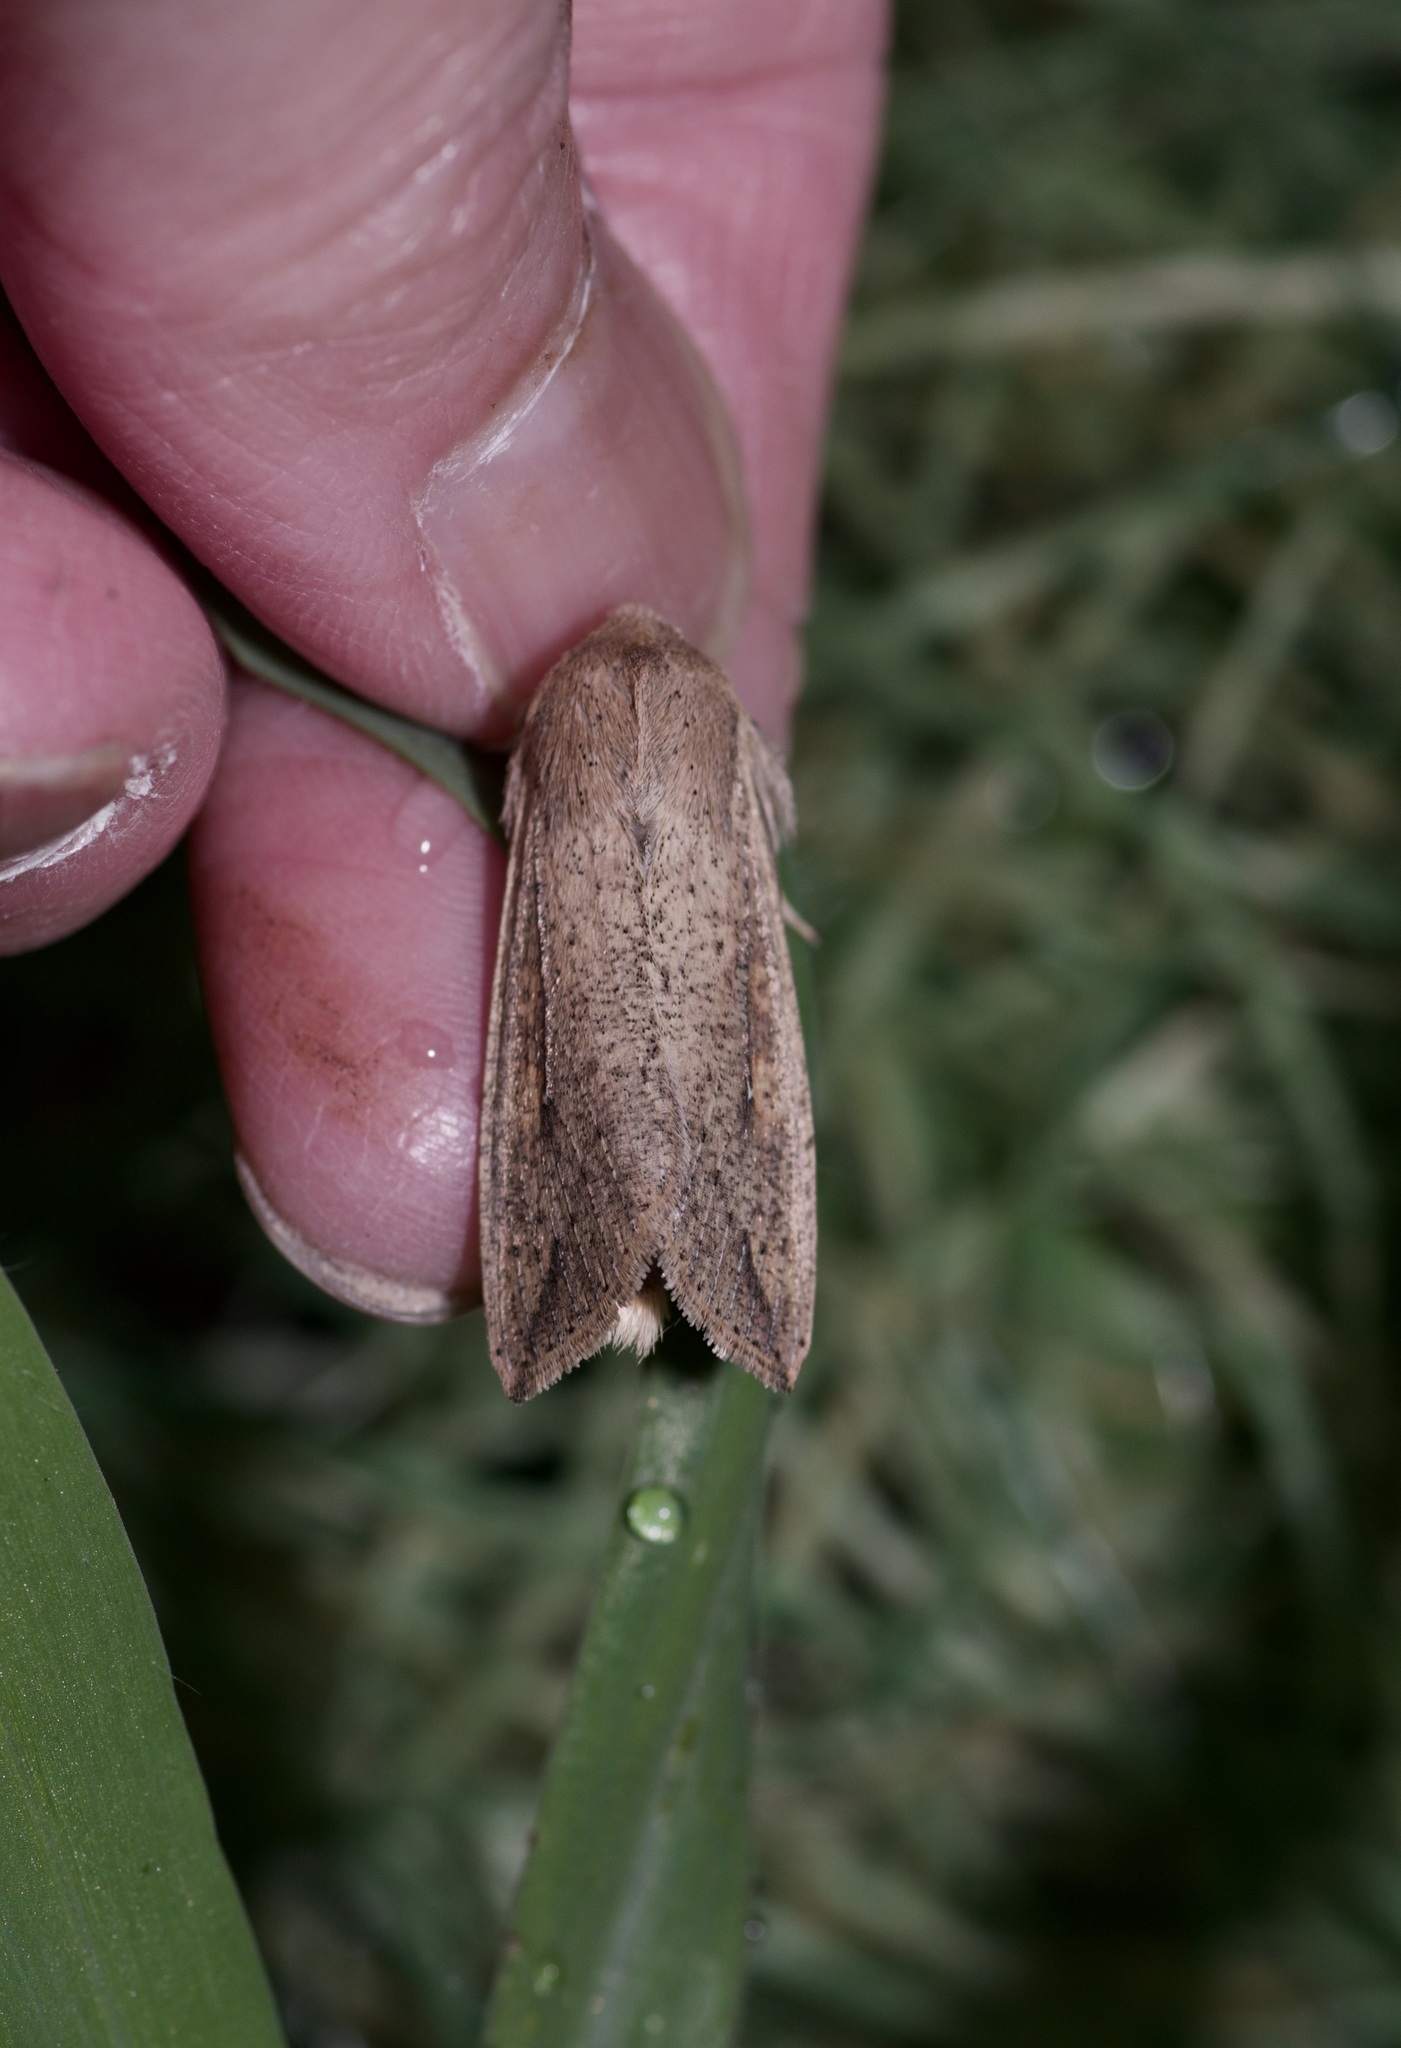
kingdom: Animalia
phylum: Arthropoda
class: Insecta
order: Lepidoptera
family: Noctuidae
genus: Mythimna
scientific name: Mythimna unipuncta
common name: White-speck
